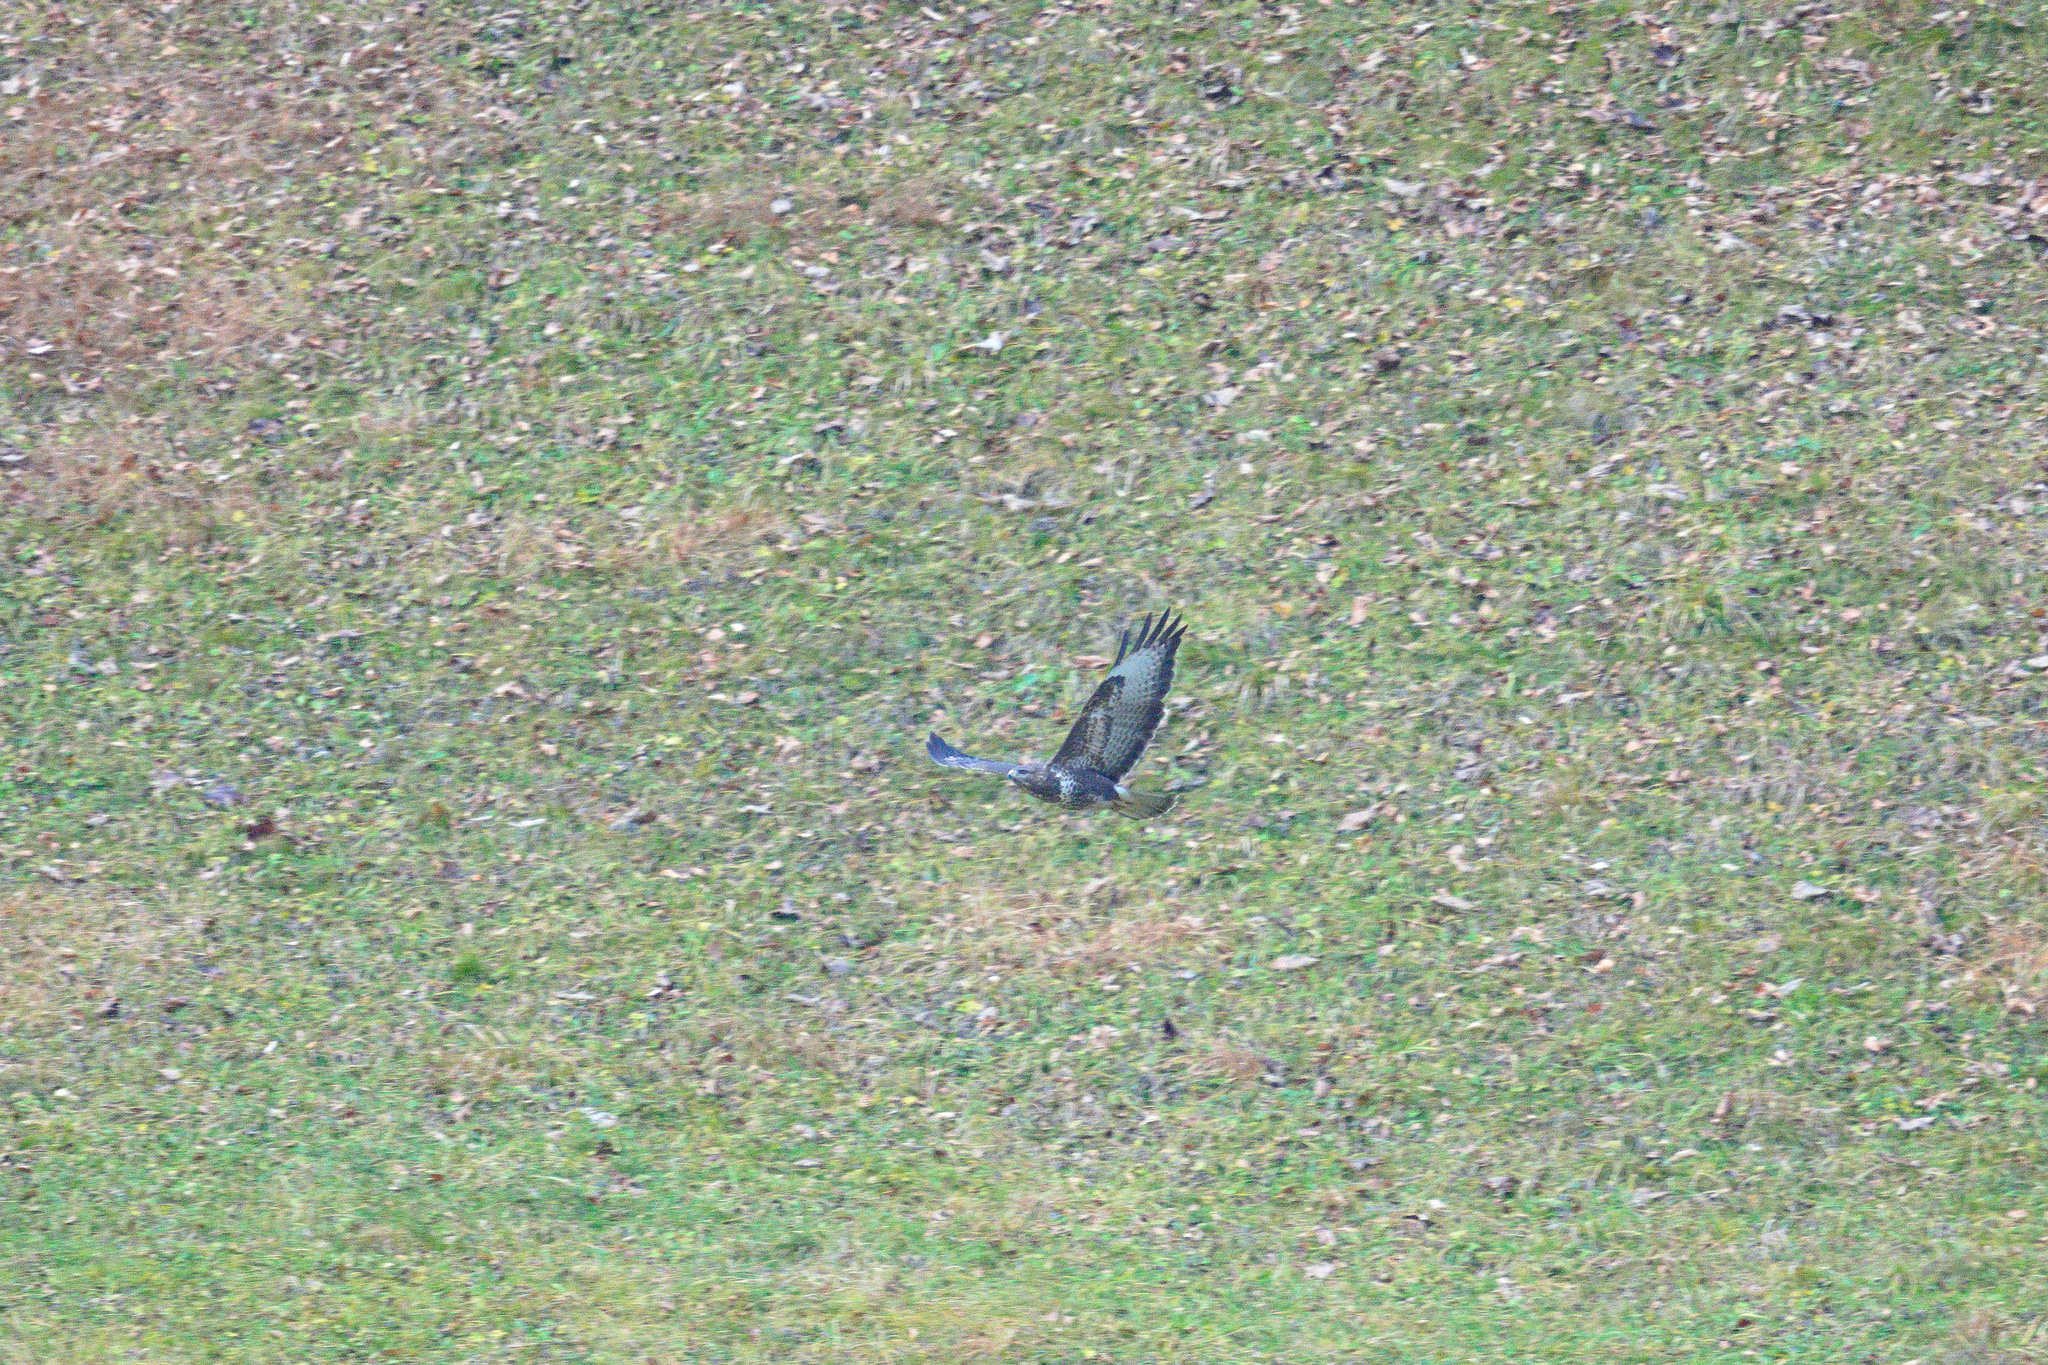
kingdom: Animalia
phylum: Chordata
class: Aves
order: Accipitriformes
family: Accipitridae
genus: Buteo
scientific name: Buteo buteo
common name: Common buzzard
